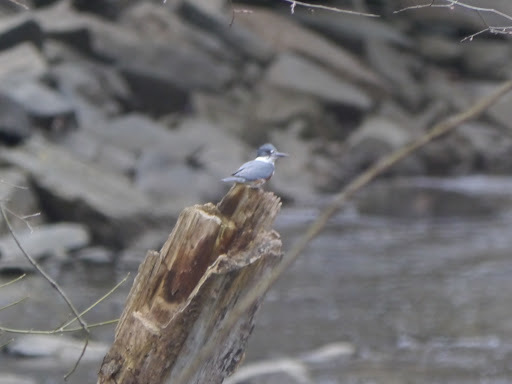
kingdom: Animalia
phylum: Chordata
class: Aves
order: Coraciiformes
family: Alcedinidae
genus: Megaceryle
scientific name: Megaceryle alcyon
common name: Belted kingfisher
